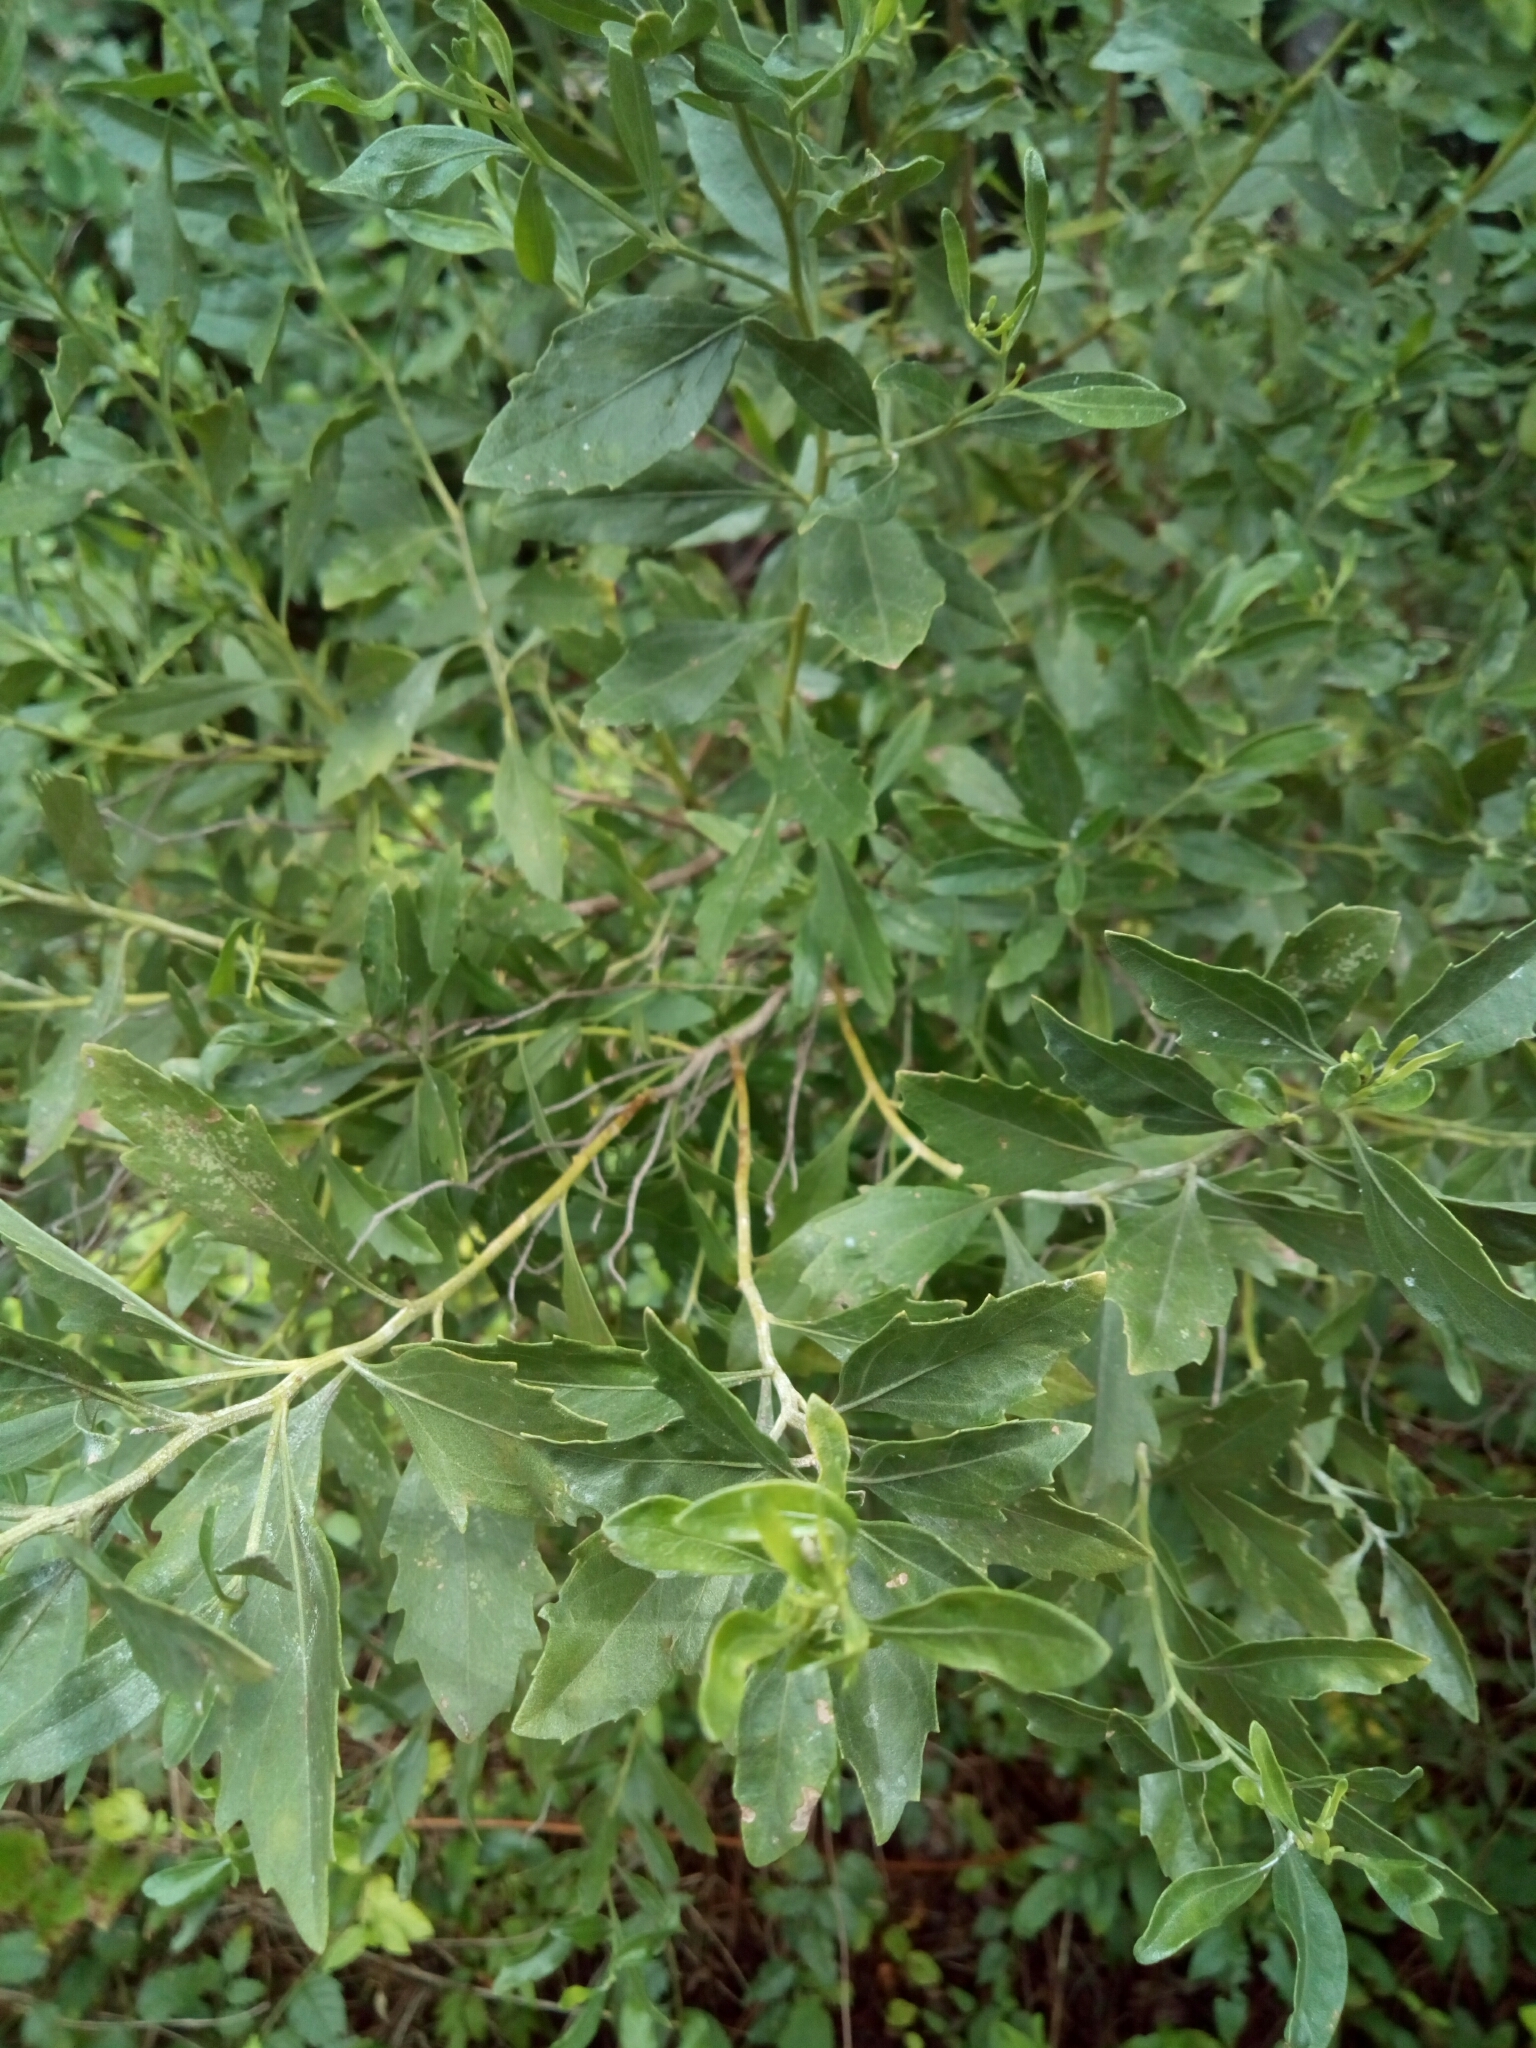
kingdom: Plantae
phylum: Tracheophyta
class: Magnoliopsida
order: Asterales
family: Asteraceae
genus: Baccharis
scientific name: Baccharis halimifolia
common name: Eastern baccharis
